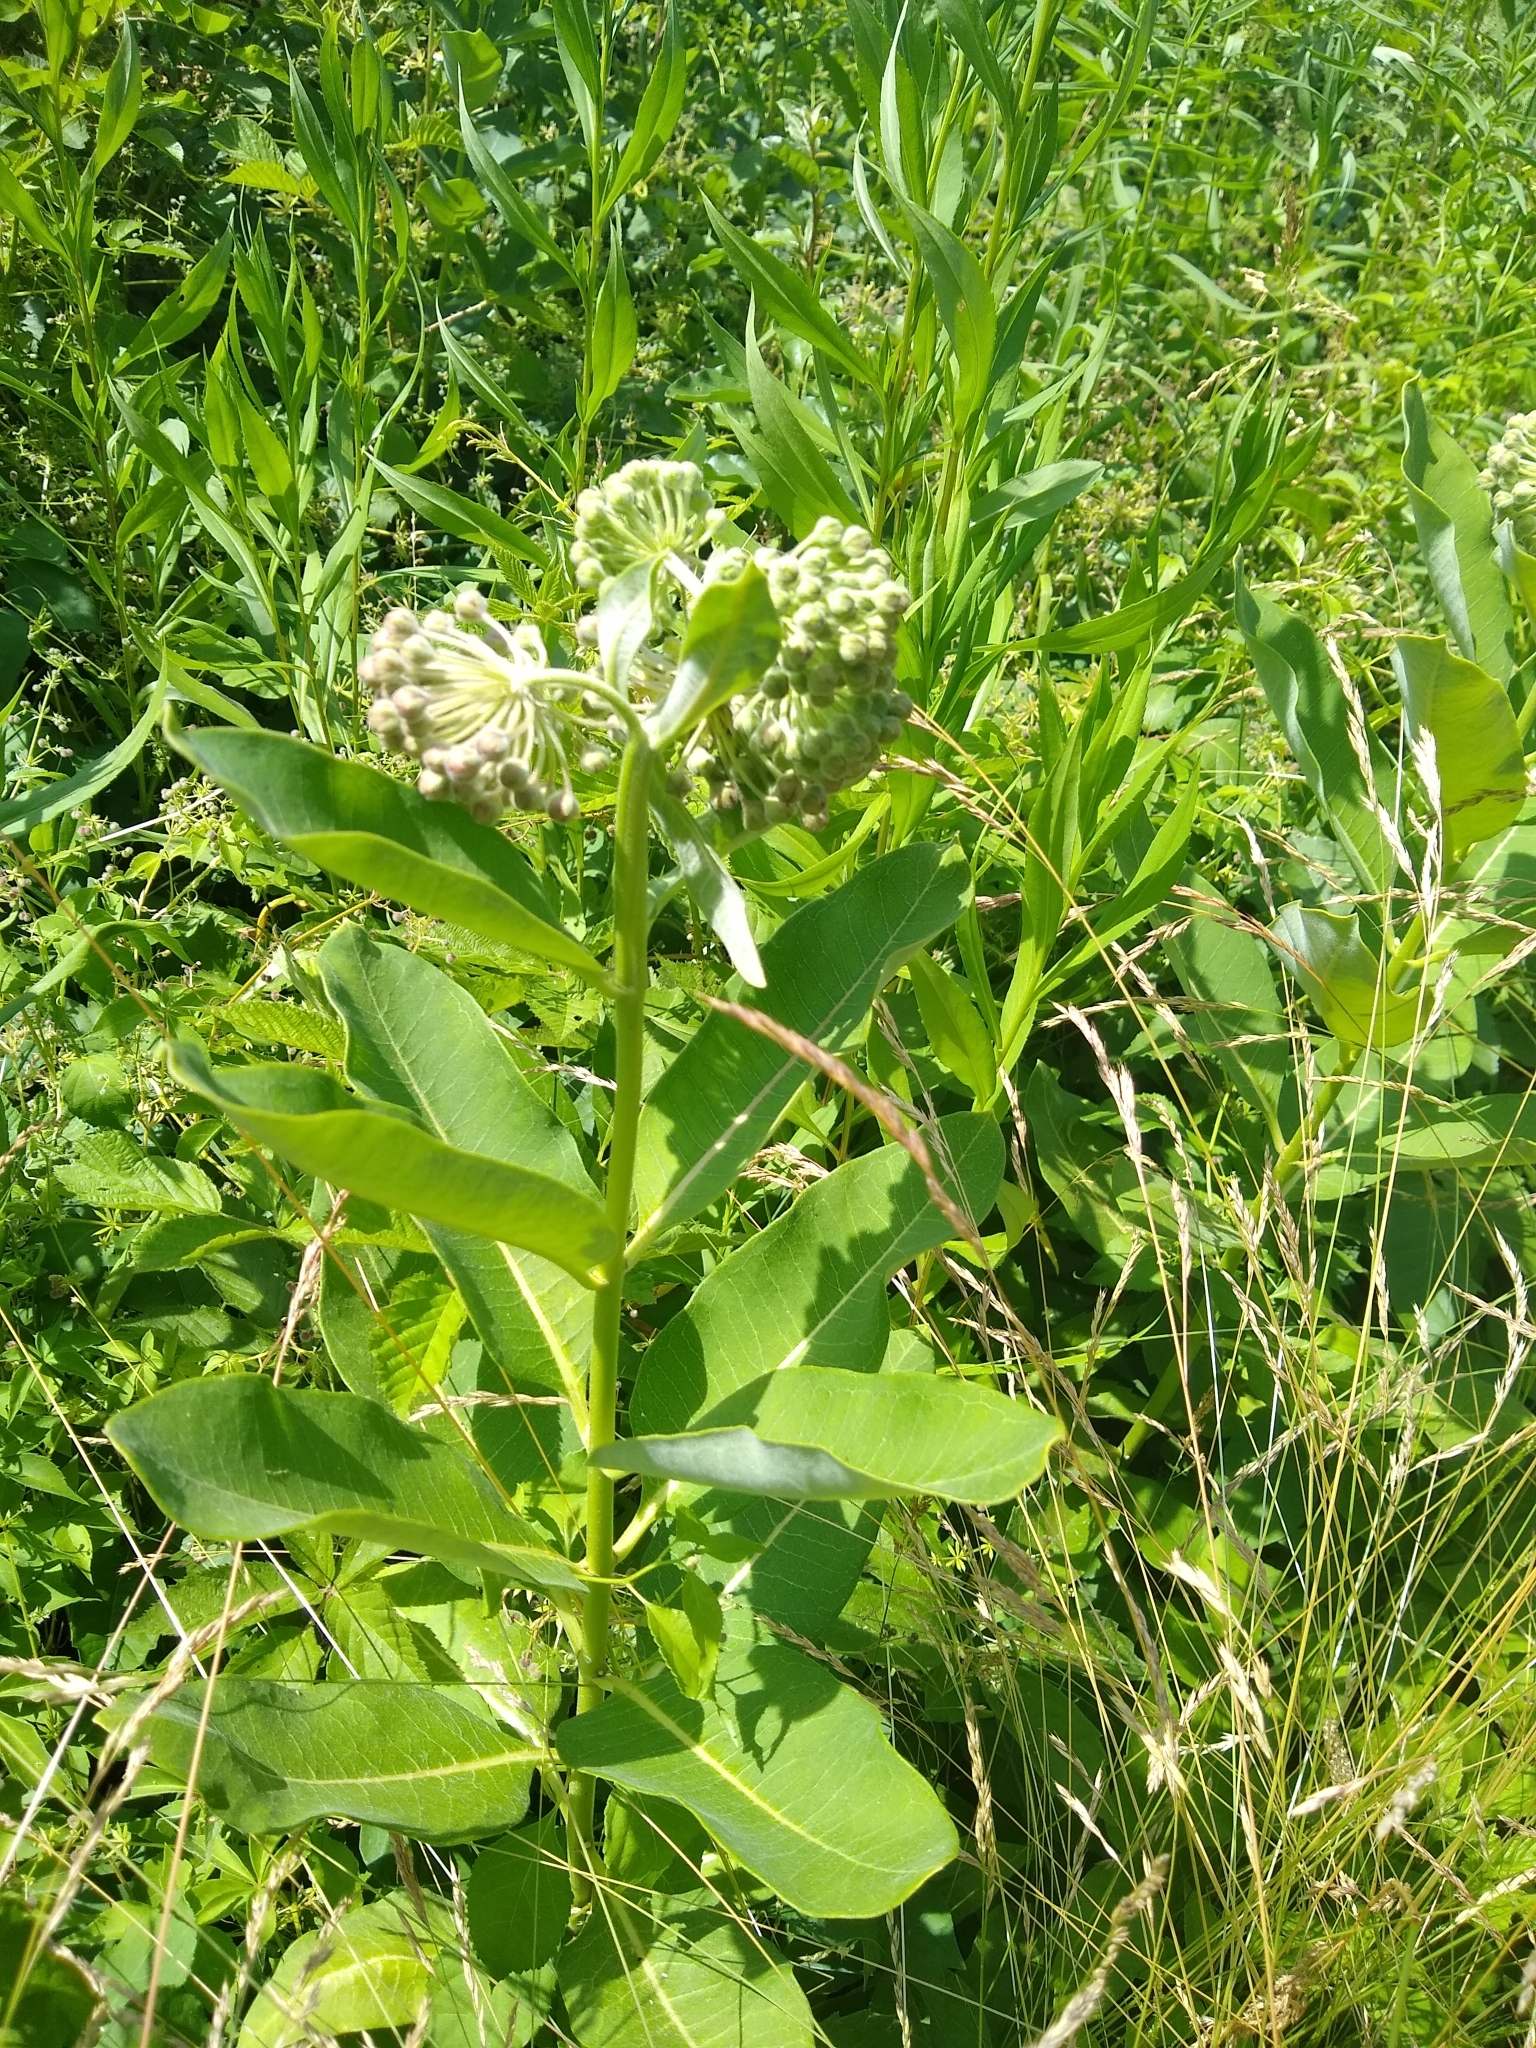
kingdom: Plantae
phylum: Tracheophyta
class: Magnoliopsida
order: Gentianales
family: Apocynaceae
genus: Asclepias
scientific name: Asclepias syriaca
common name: Common milkweed
